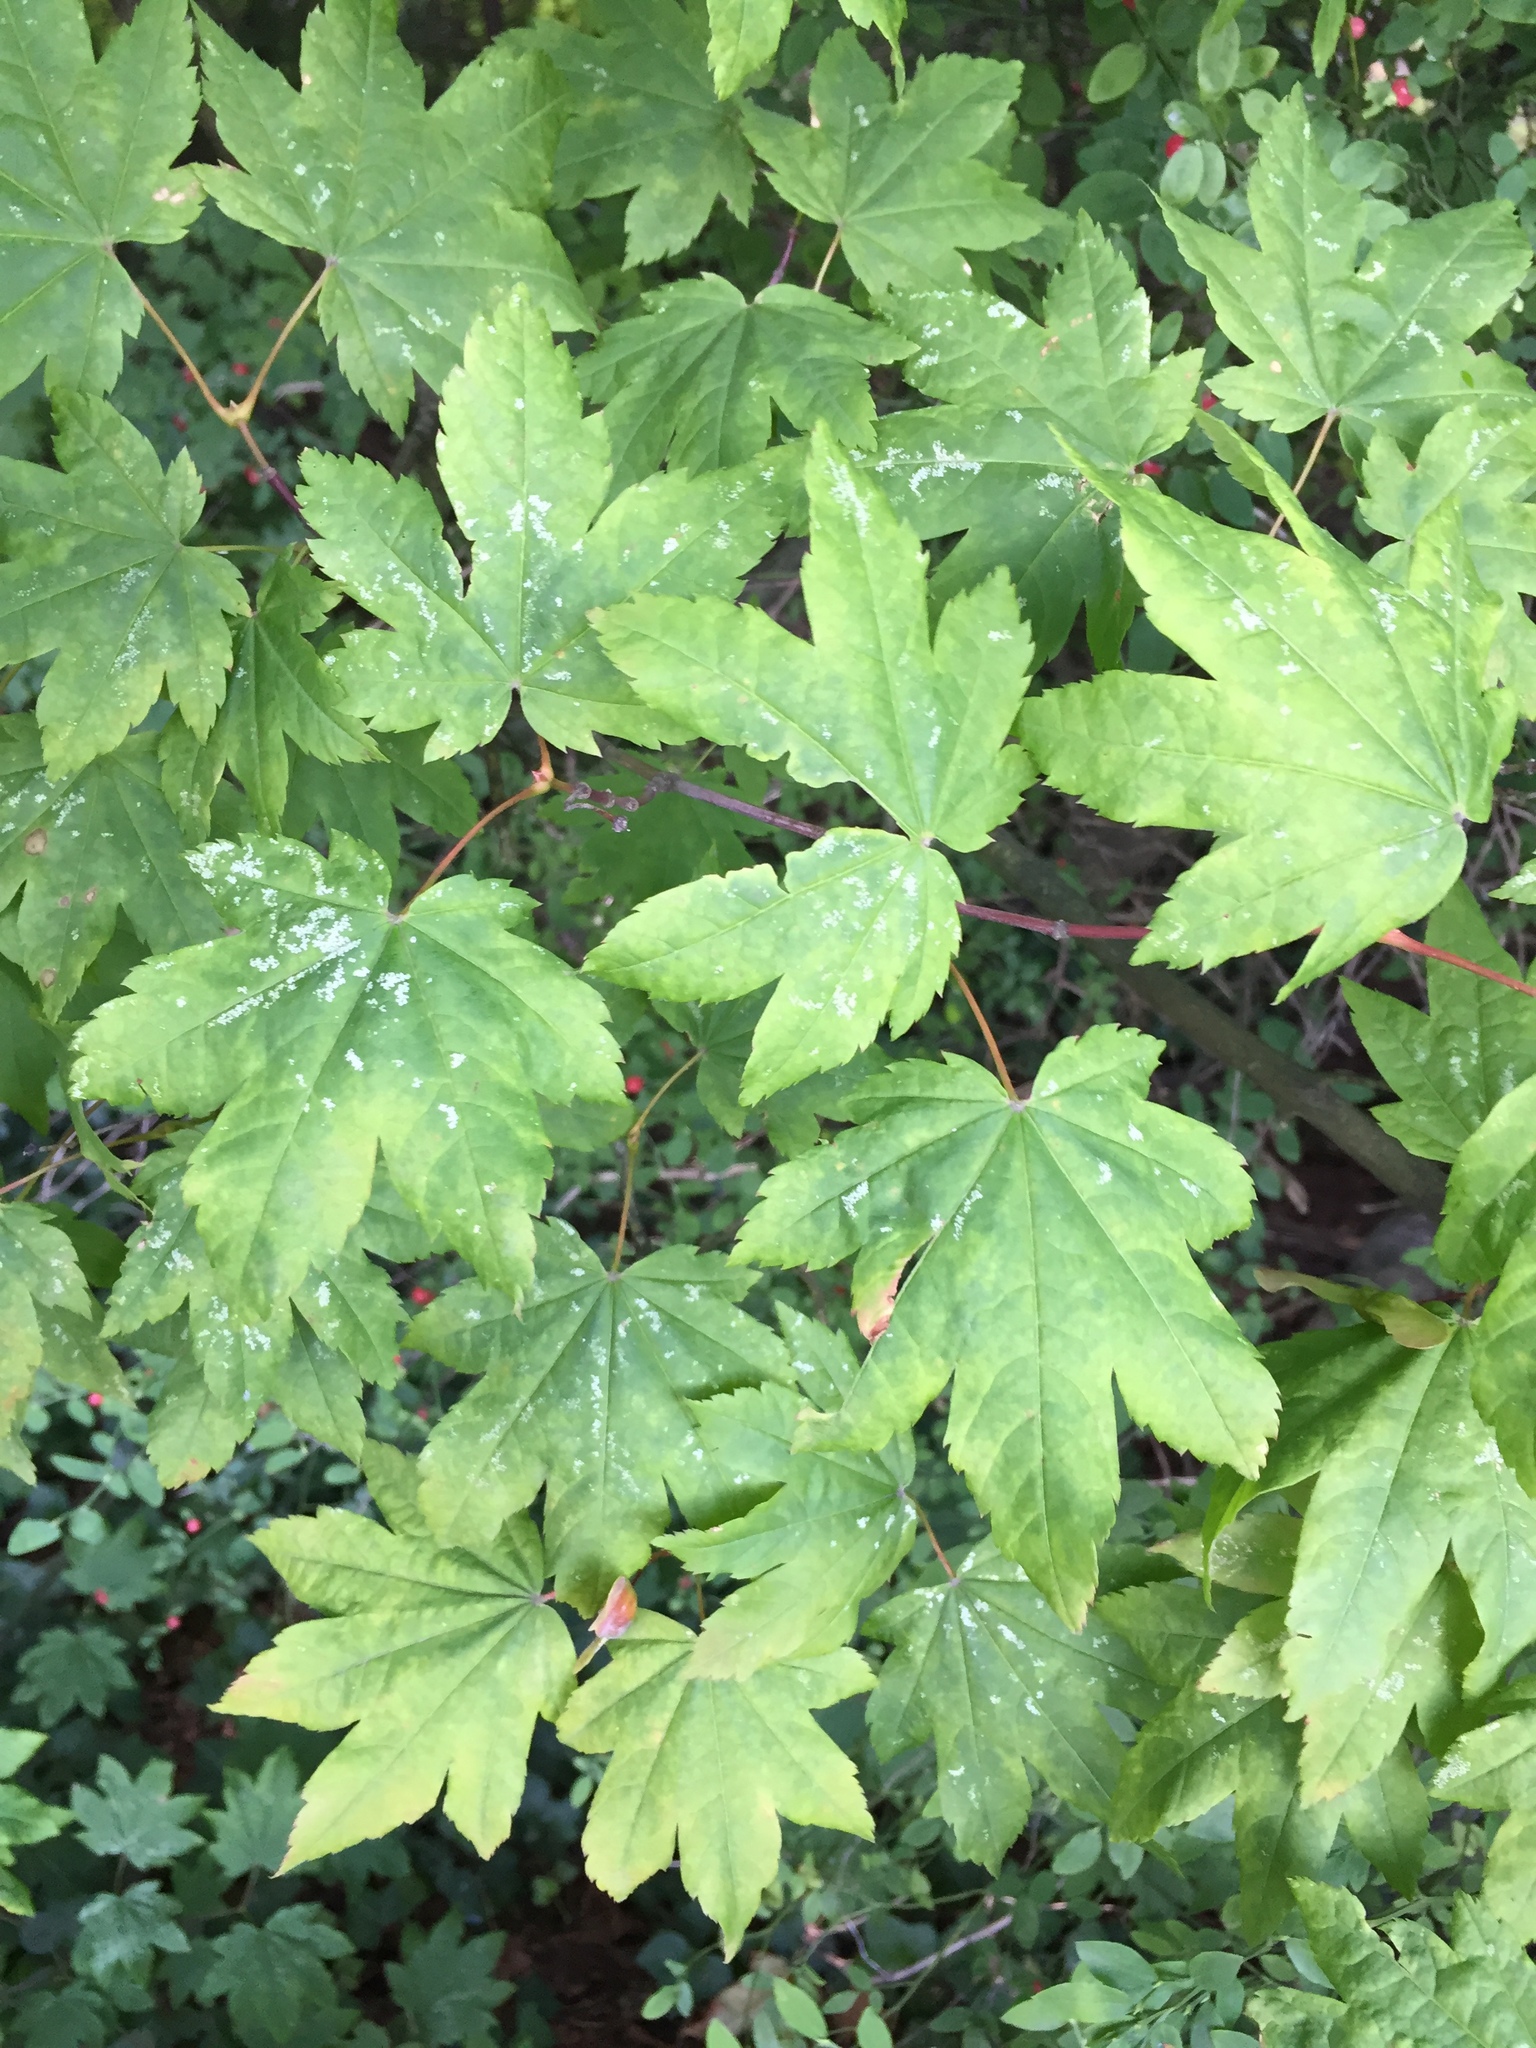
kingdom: Plantae
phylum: Tracheophyta
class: Magnoliopsida
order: Sapindales
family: Sapindaceae
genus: Acer
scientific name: Acer circinatum
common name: Vine maple
